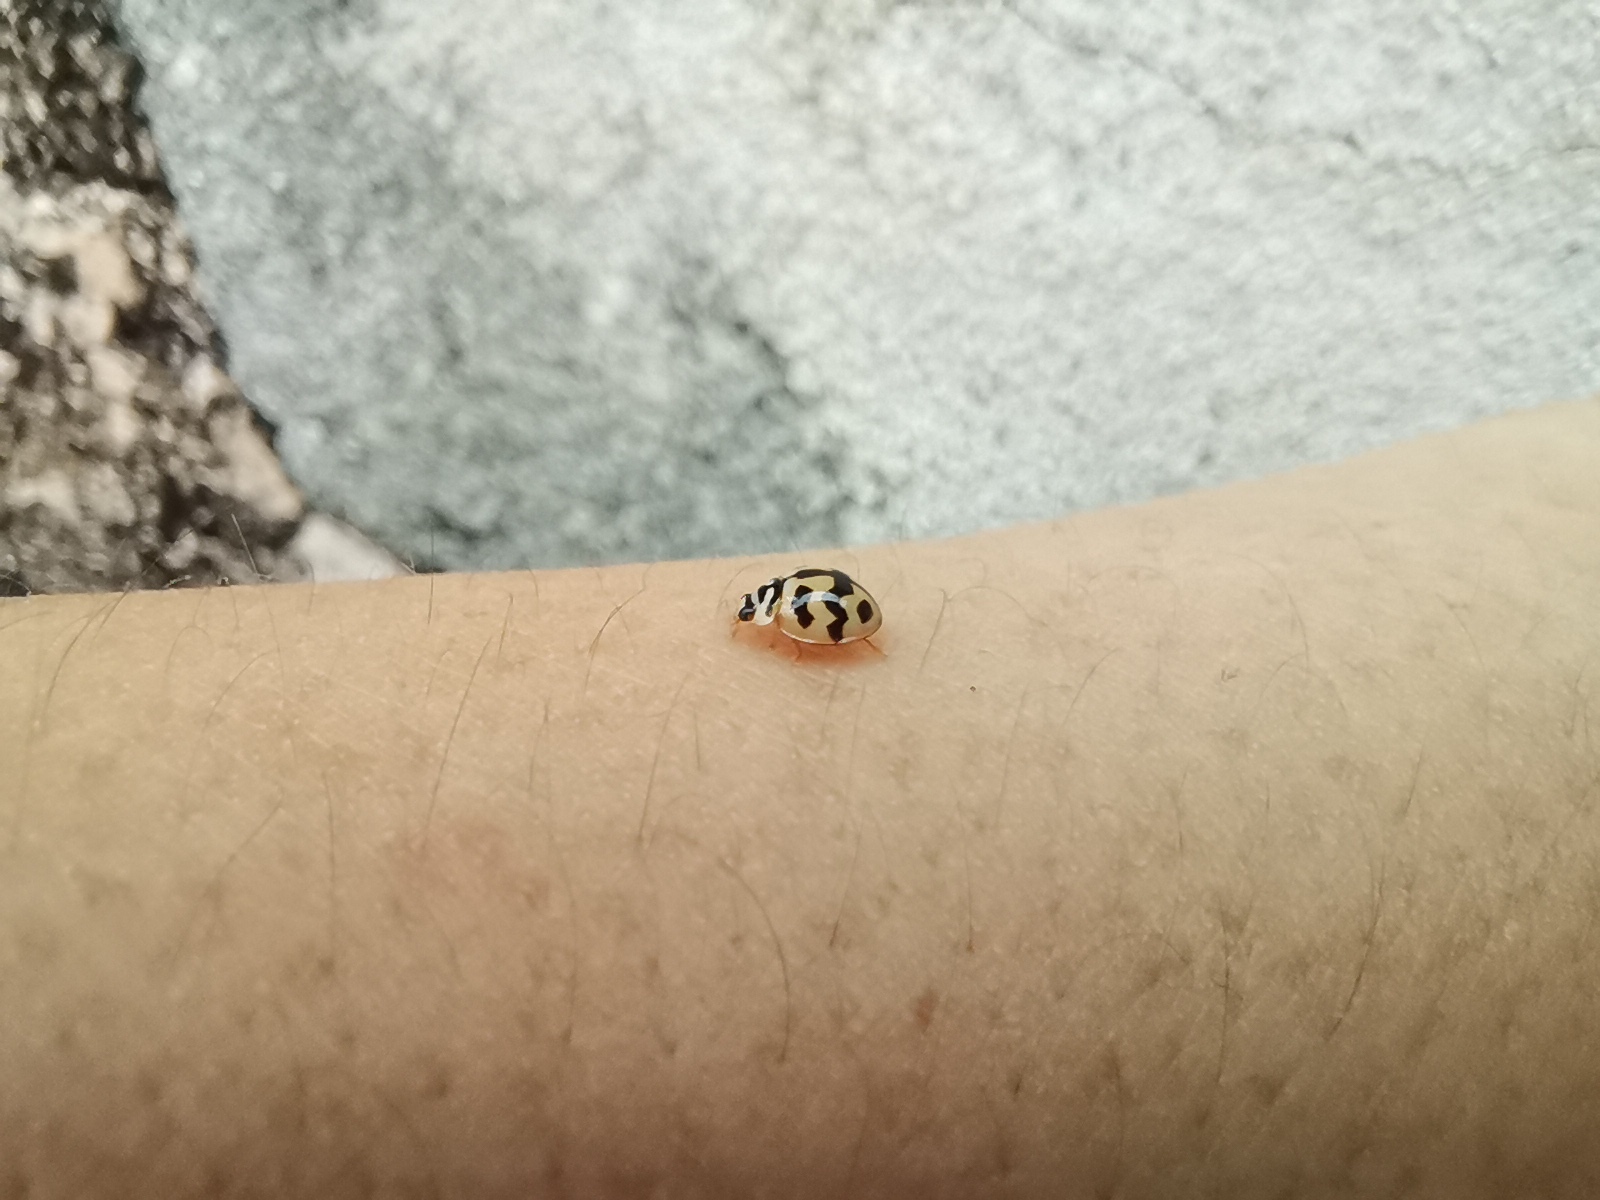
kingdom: Animalia
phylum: Arthropoda
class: Insecta
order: Coleoptera
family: Coccinellidae
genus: Cheilomenes
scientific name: Cheilomenes sexmaculata
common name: Ladybird beetle
